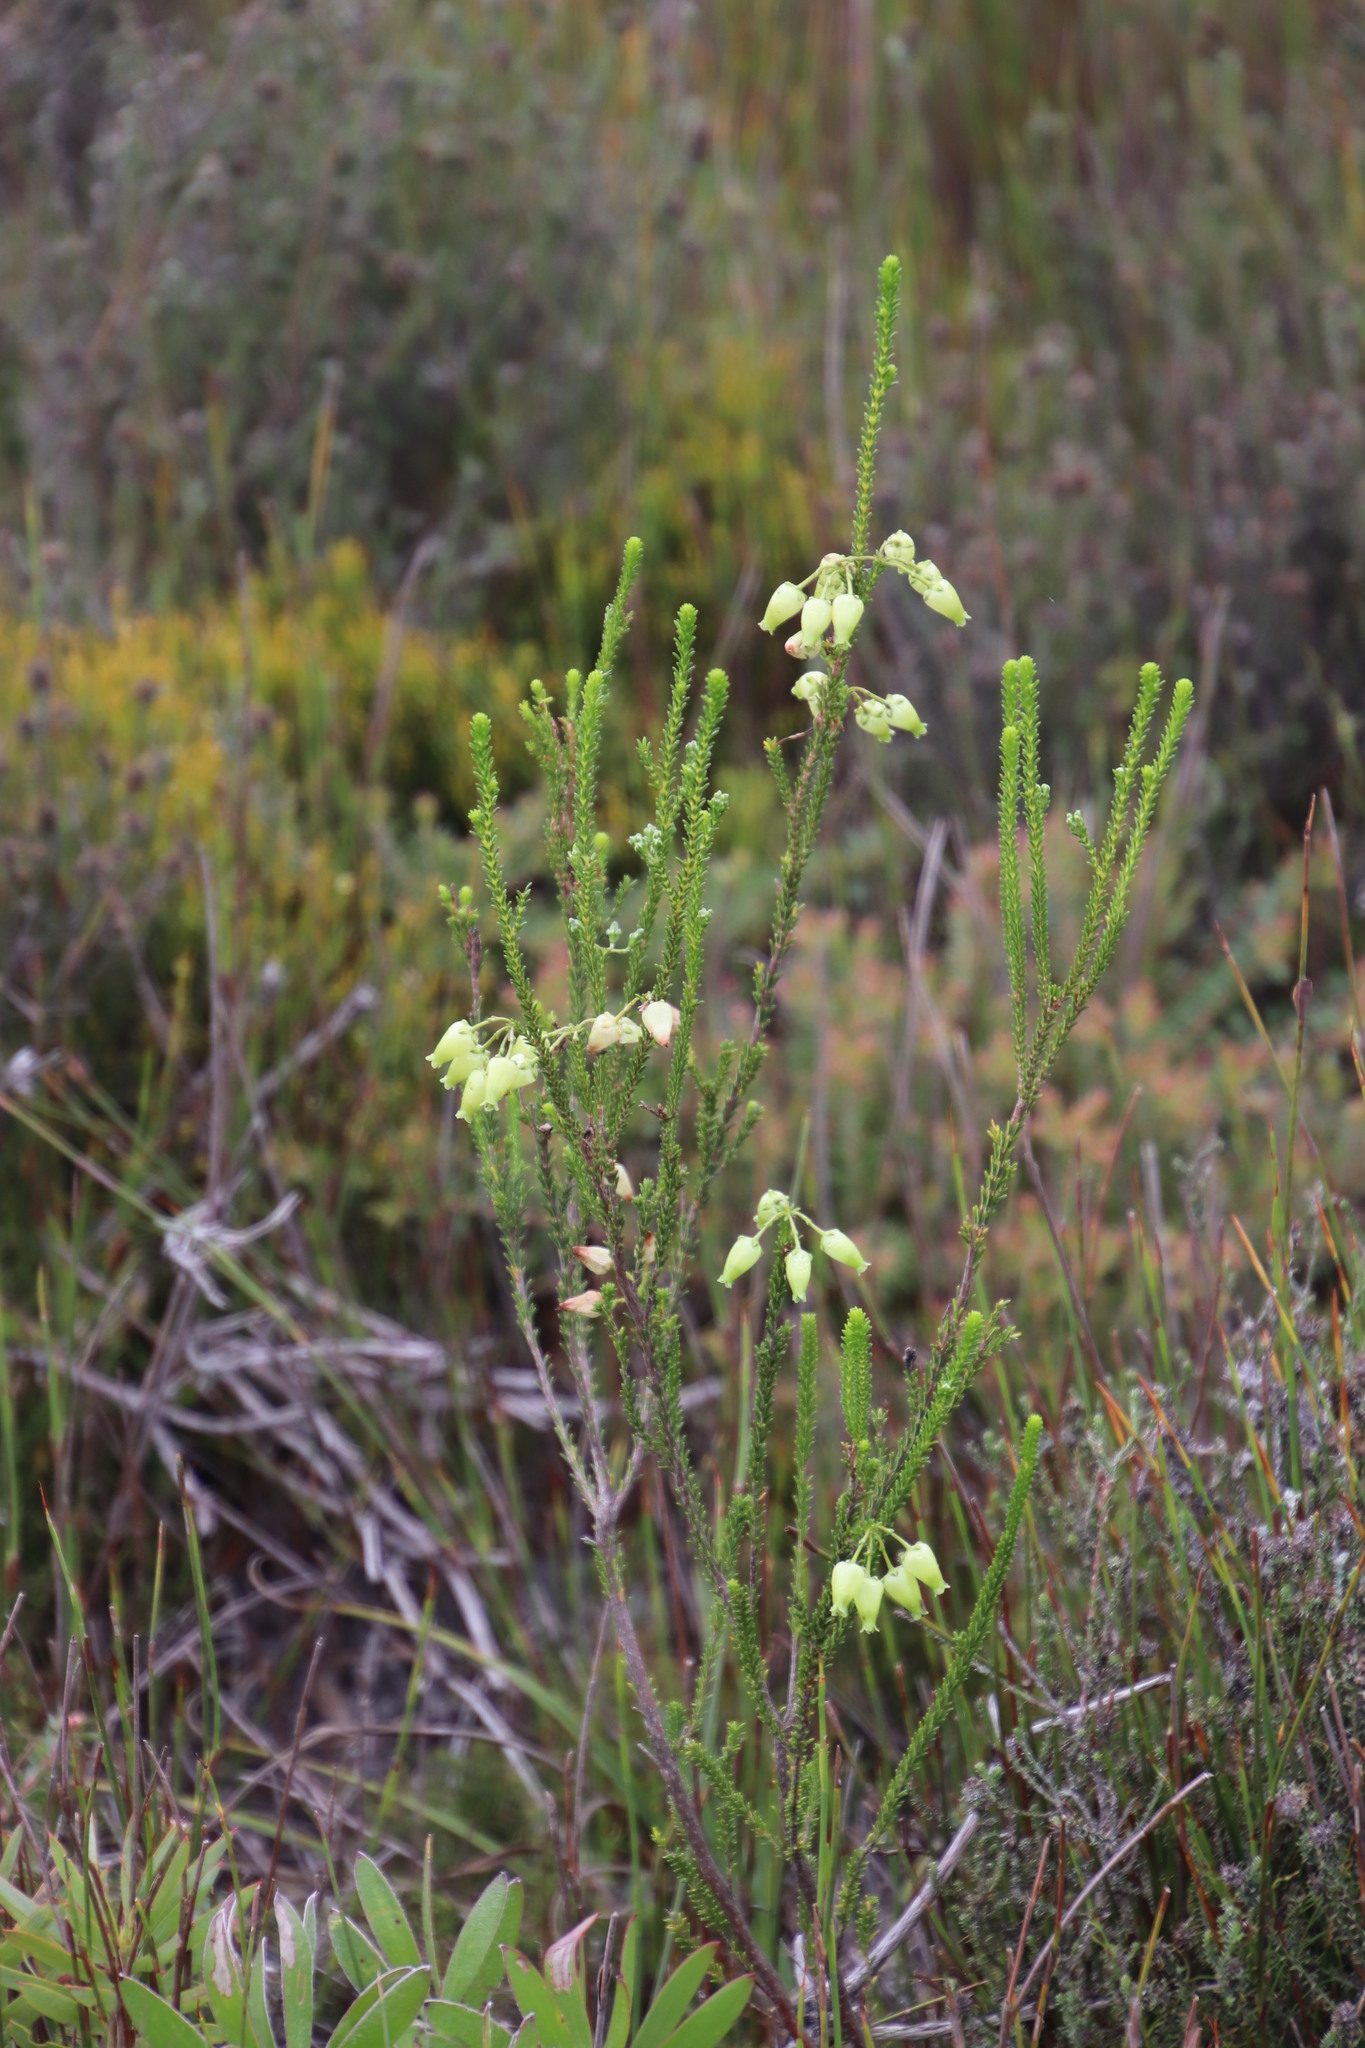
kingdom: Plantae
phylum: Tracheophyta
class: Magnoliopsida
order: Ericales
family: Ericaceae
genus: Erica
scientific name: Erica urna-viridis
